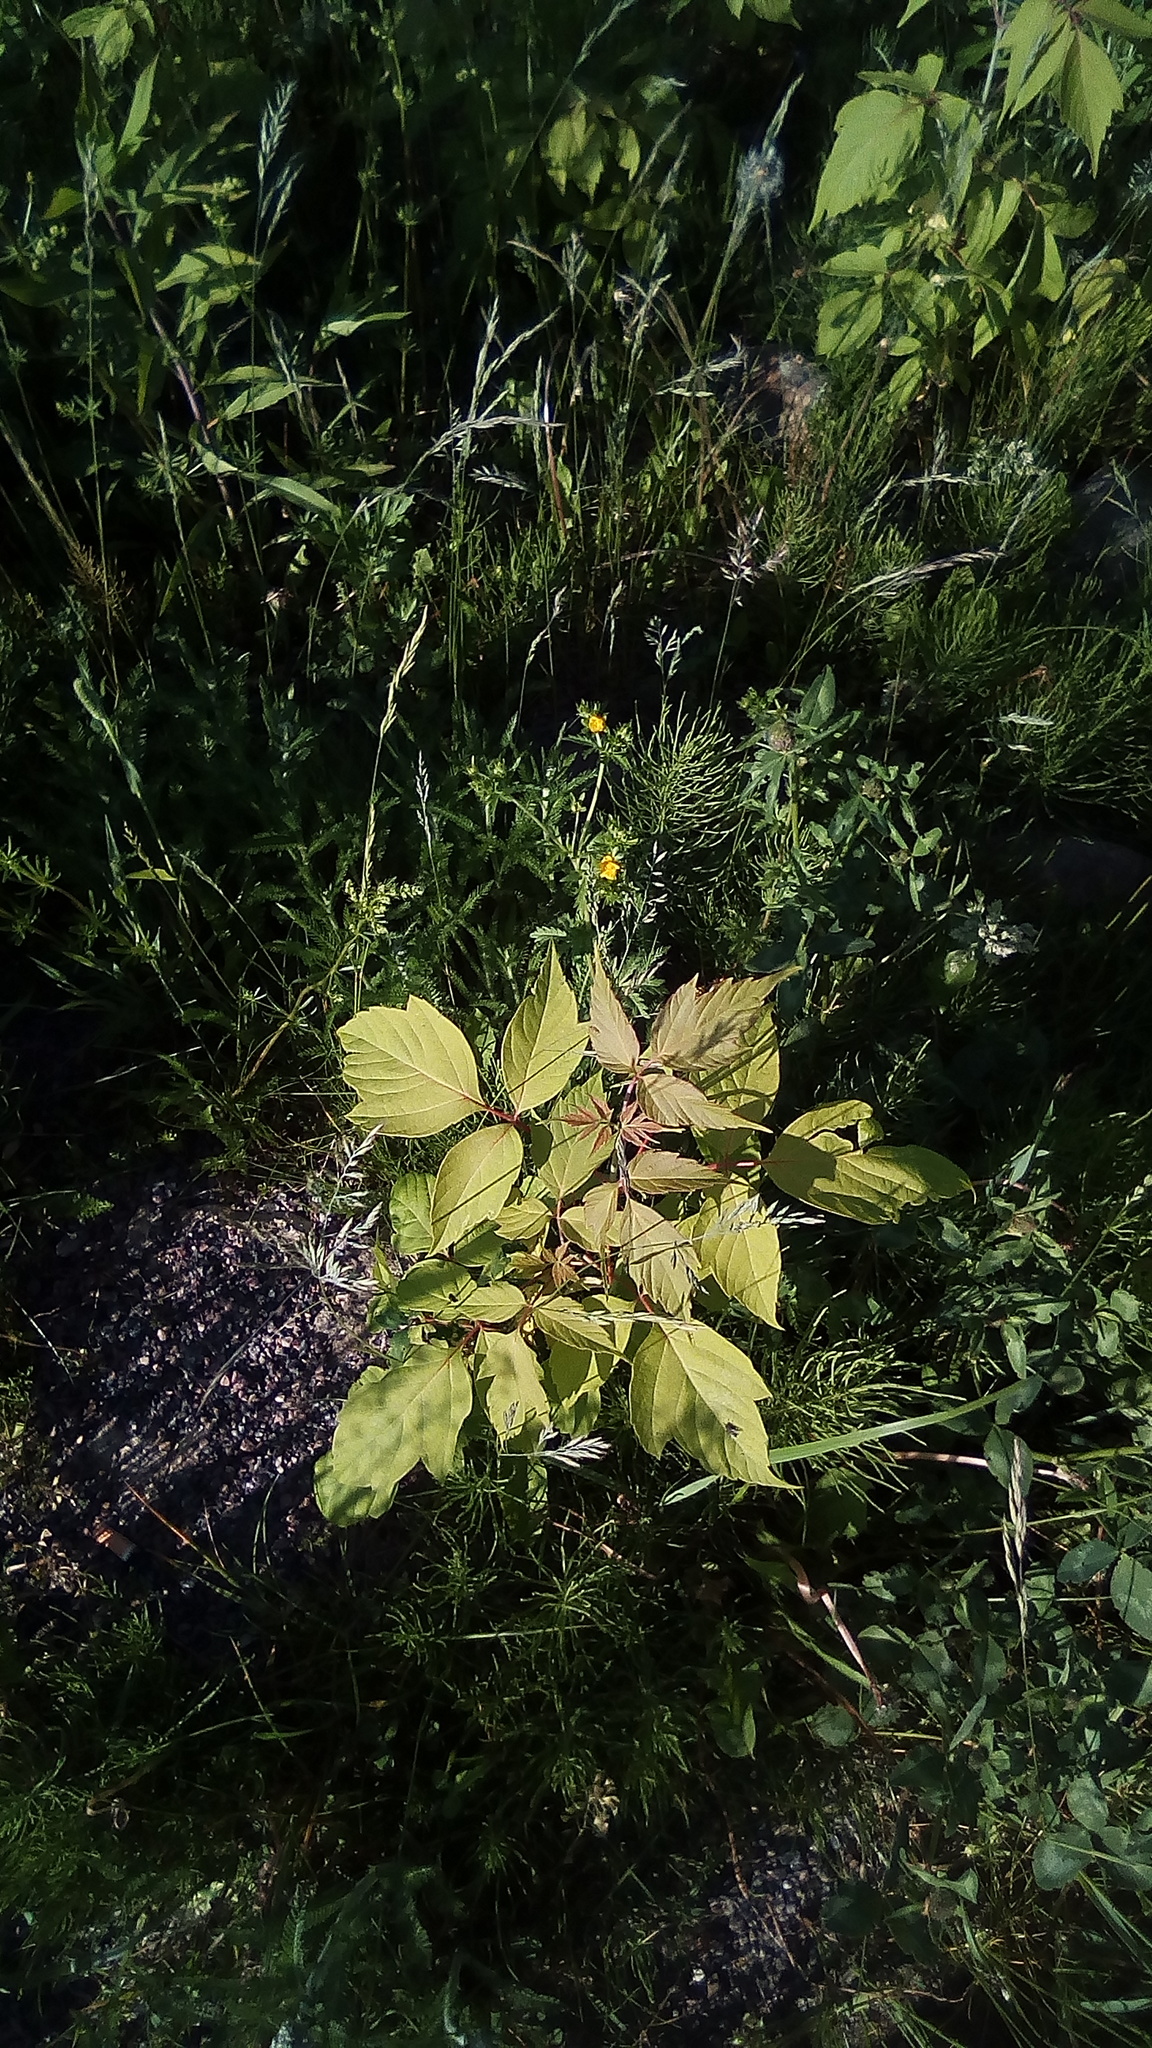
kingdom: Plantae
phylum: Tracheophyta
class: Magnoliopsida
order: Sapindales
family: Sapindaceae
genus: Acer
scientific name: Acer negundo
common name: Ashleaf maple
